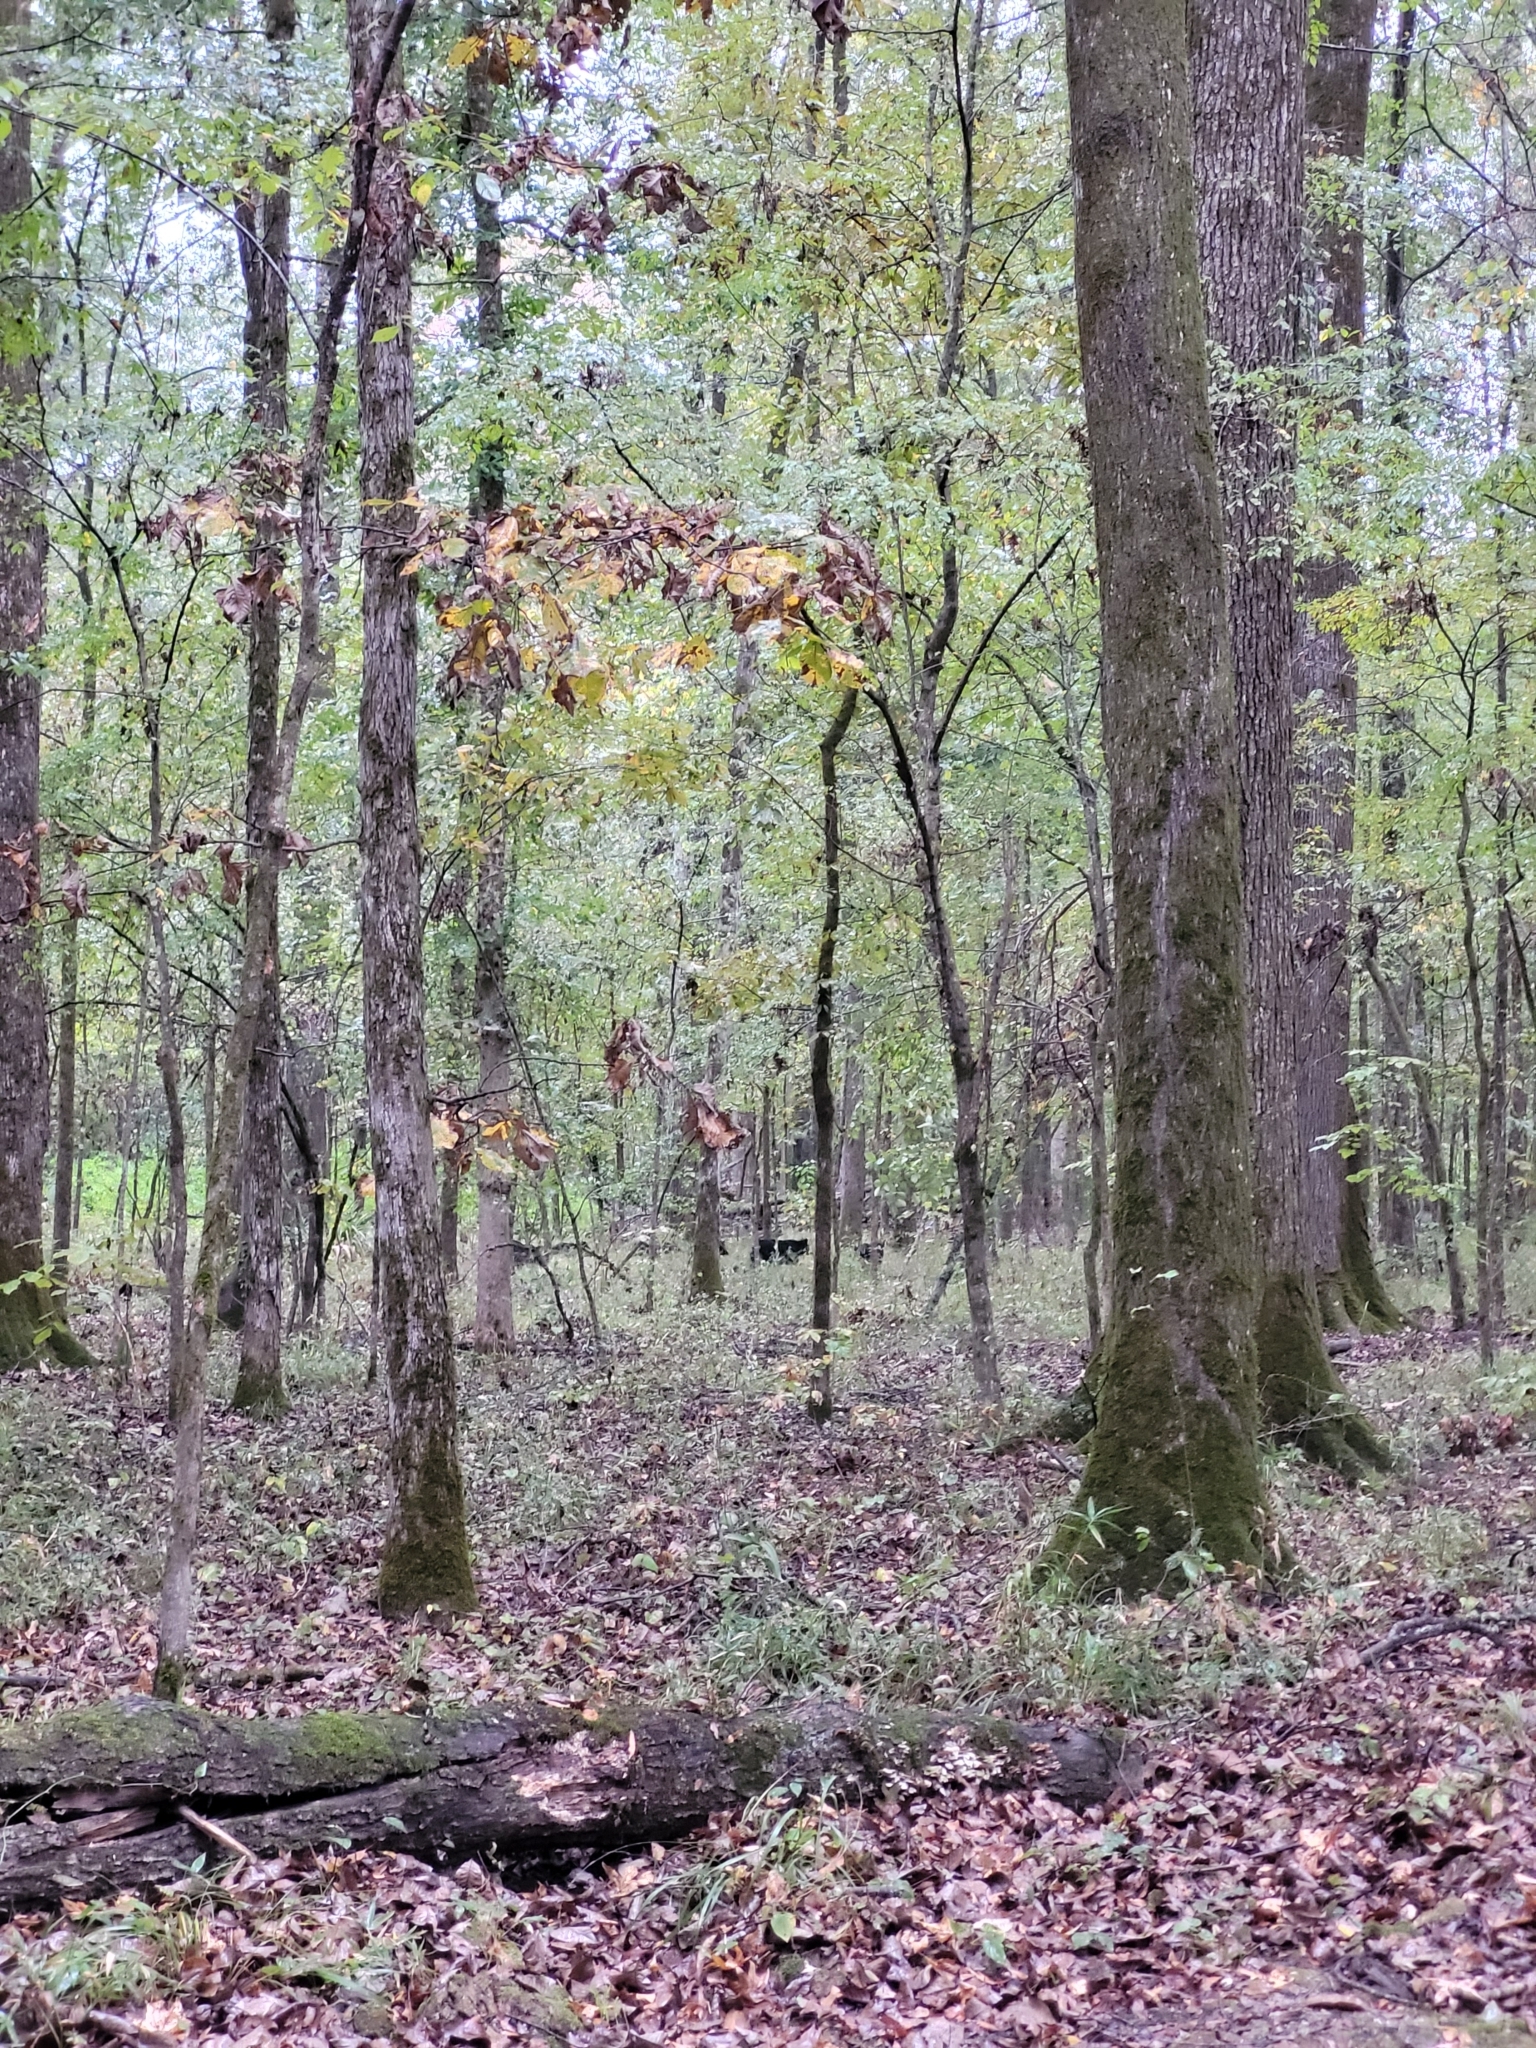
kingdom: Animalia
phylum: Chordata
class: Mammalia
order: Artiodactyla
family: Suidae
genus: Sus
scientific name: Sus scrofa
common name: Wild boar
